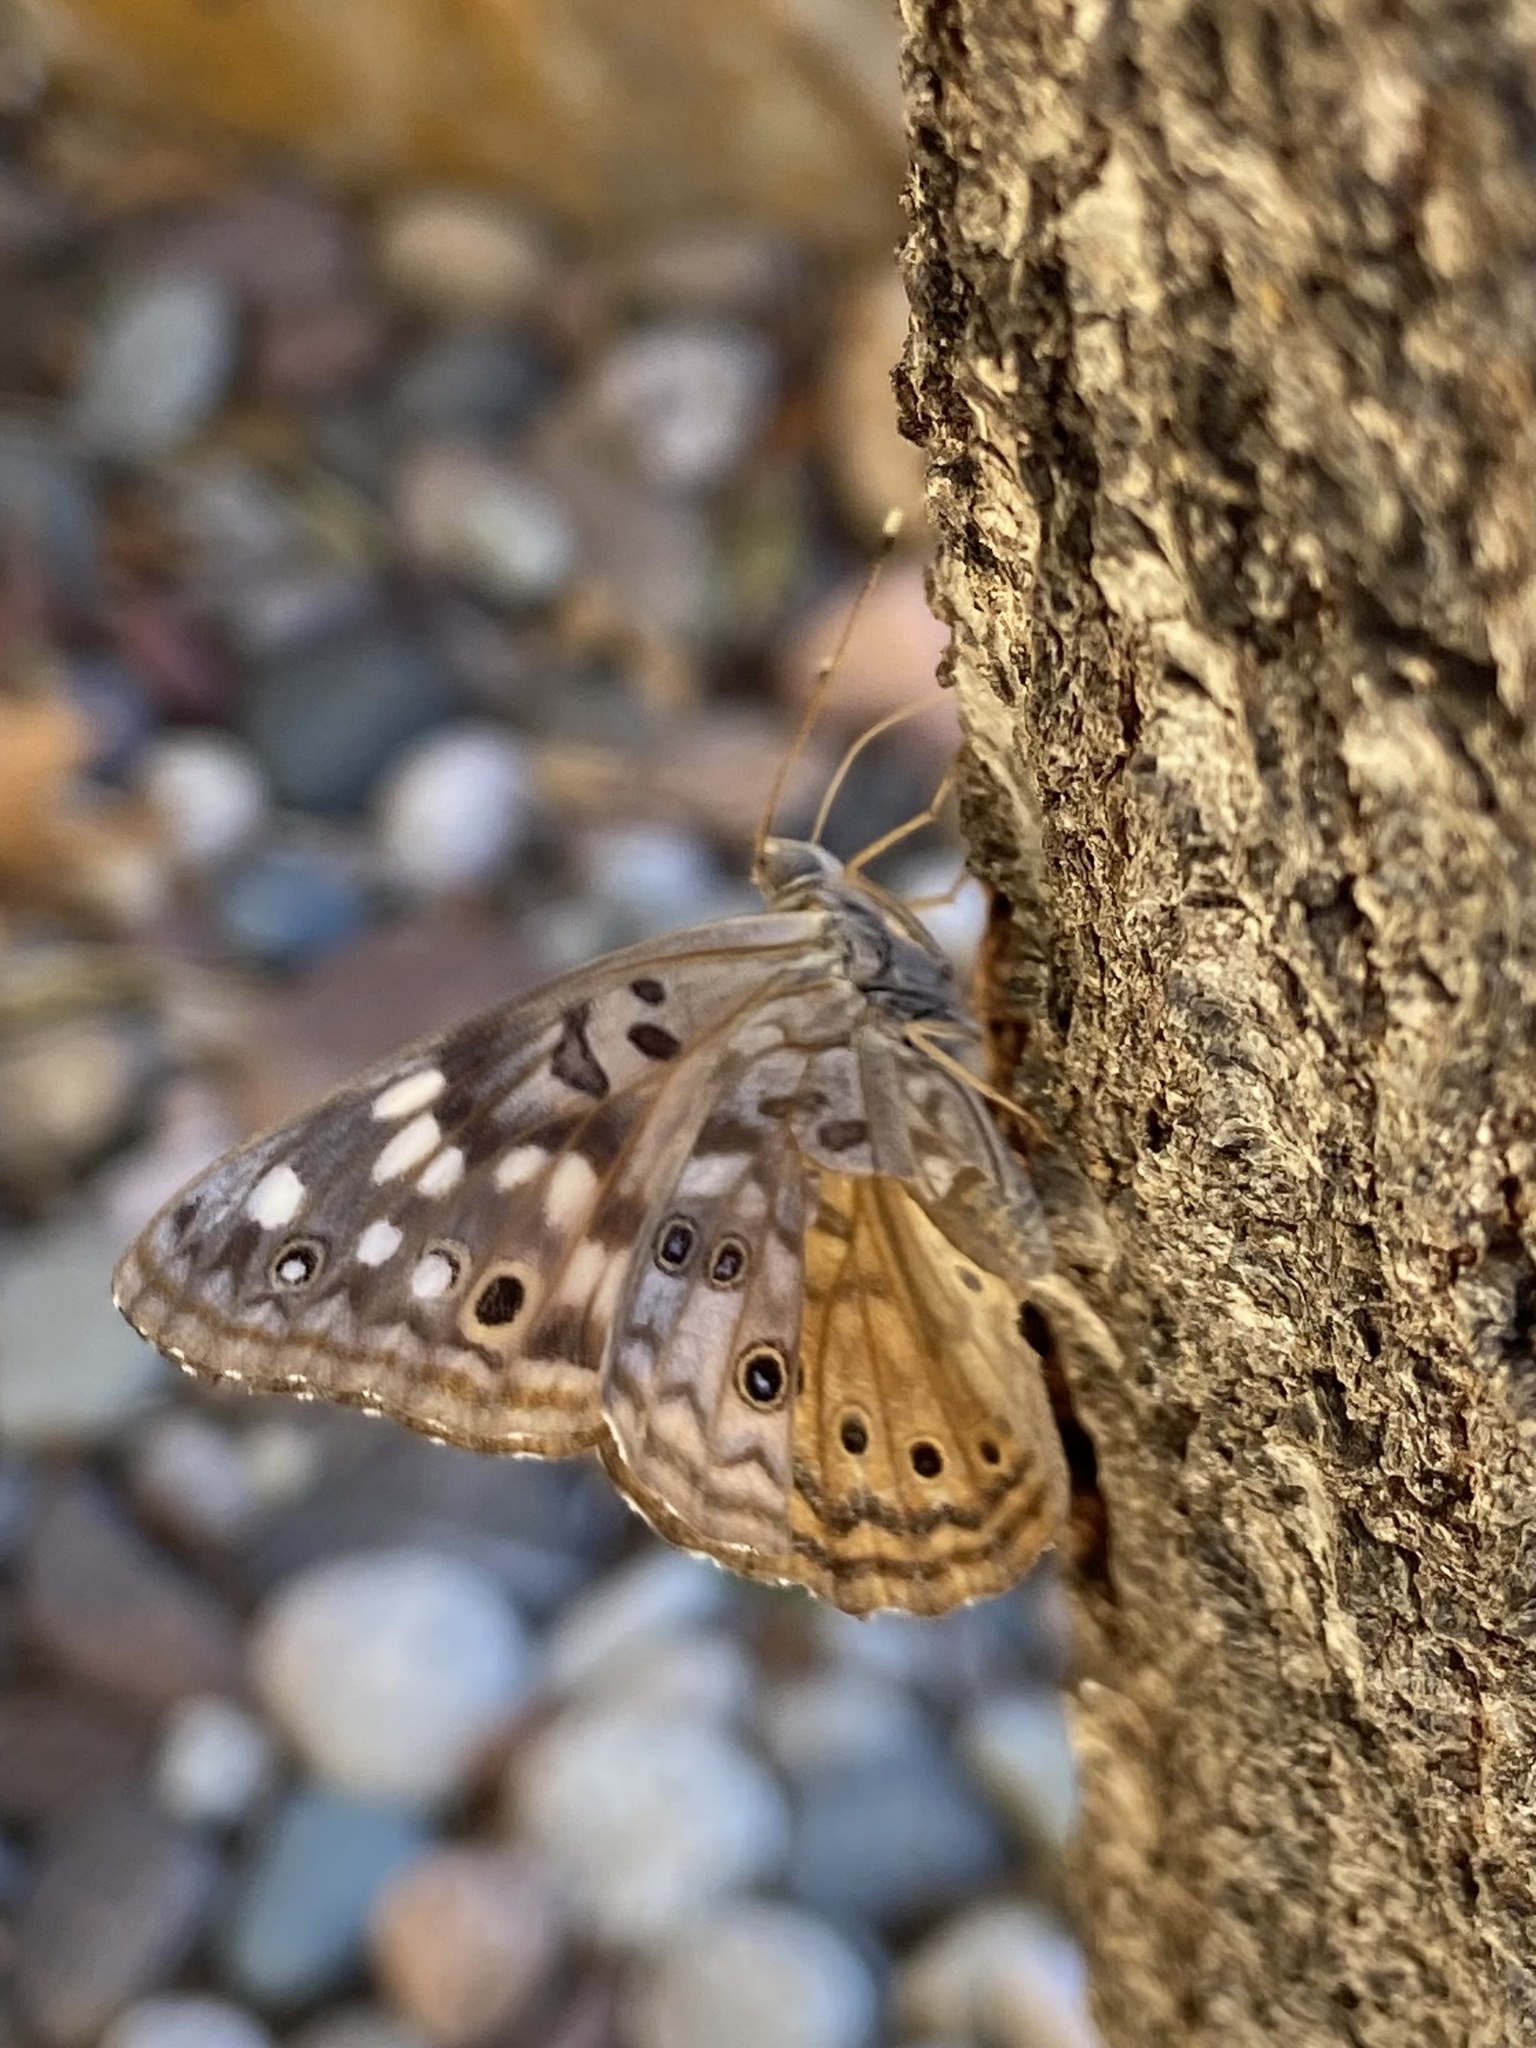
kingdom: Animalia
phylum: Arthropoda
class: Insecta
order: Lepidoptera
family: Nymphalidae
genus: Asterocampa
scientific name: Asterocampa celtis
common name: Hackberry emperor
